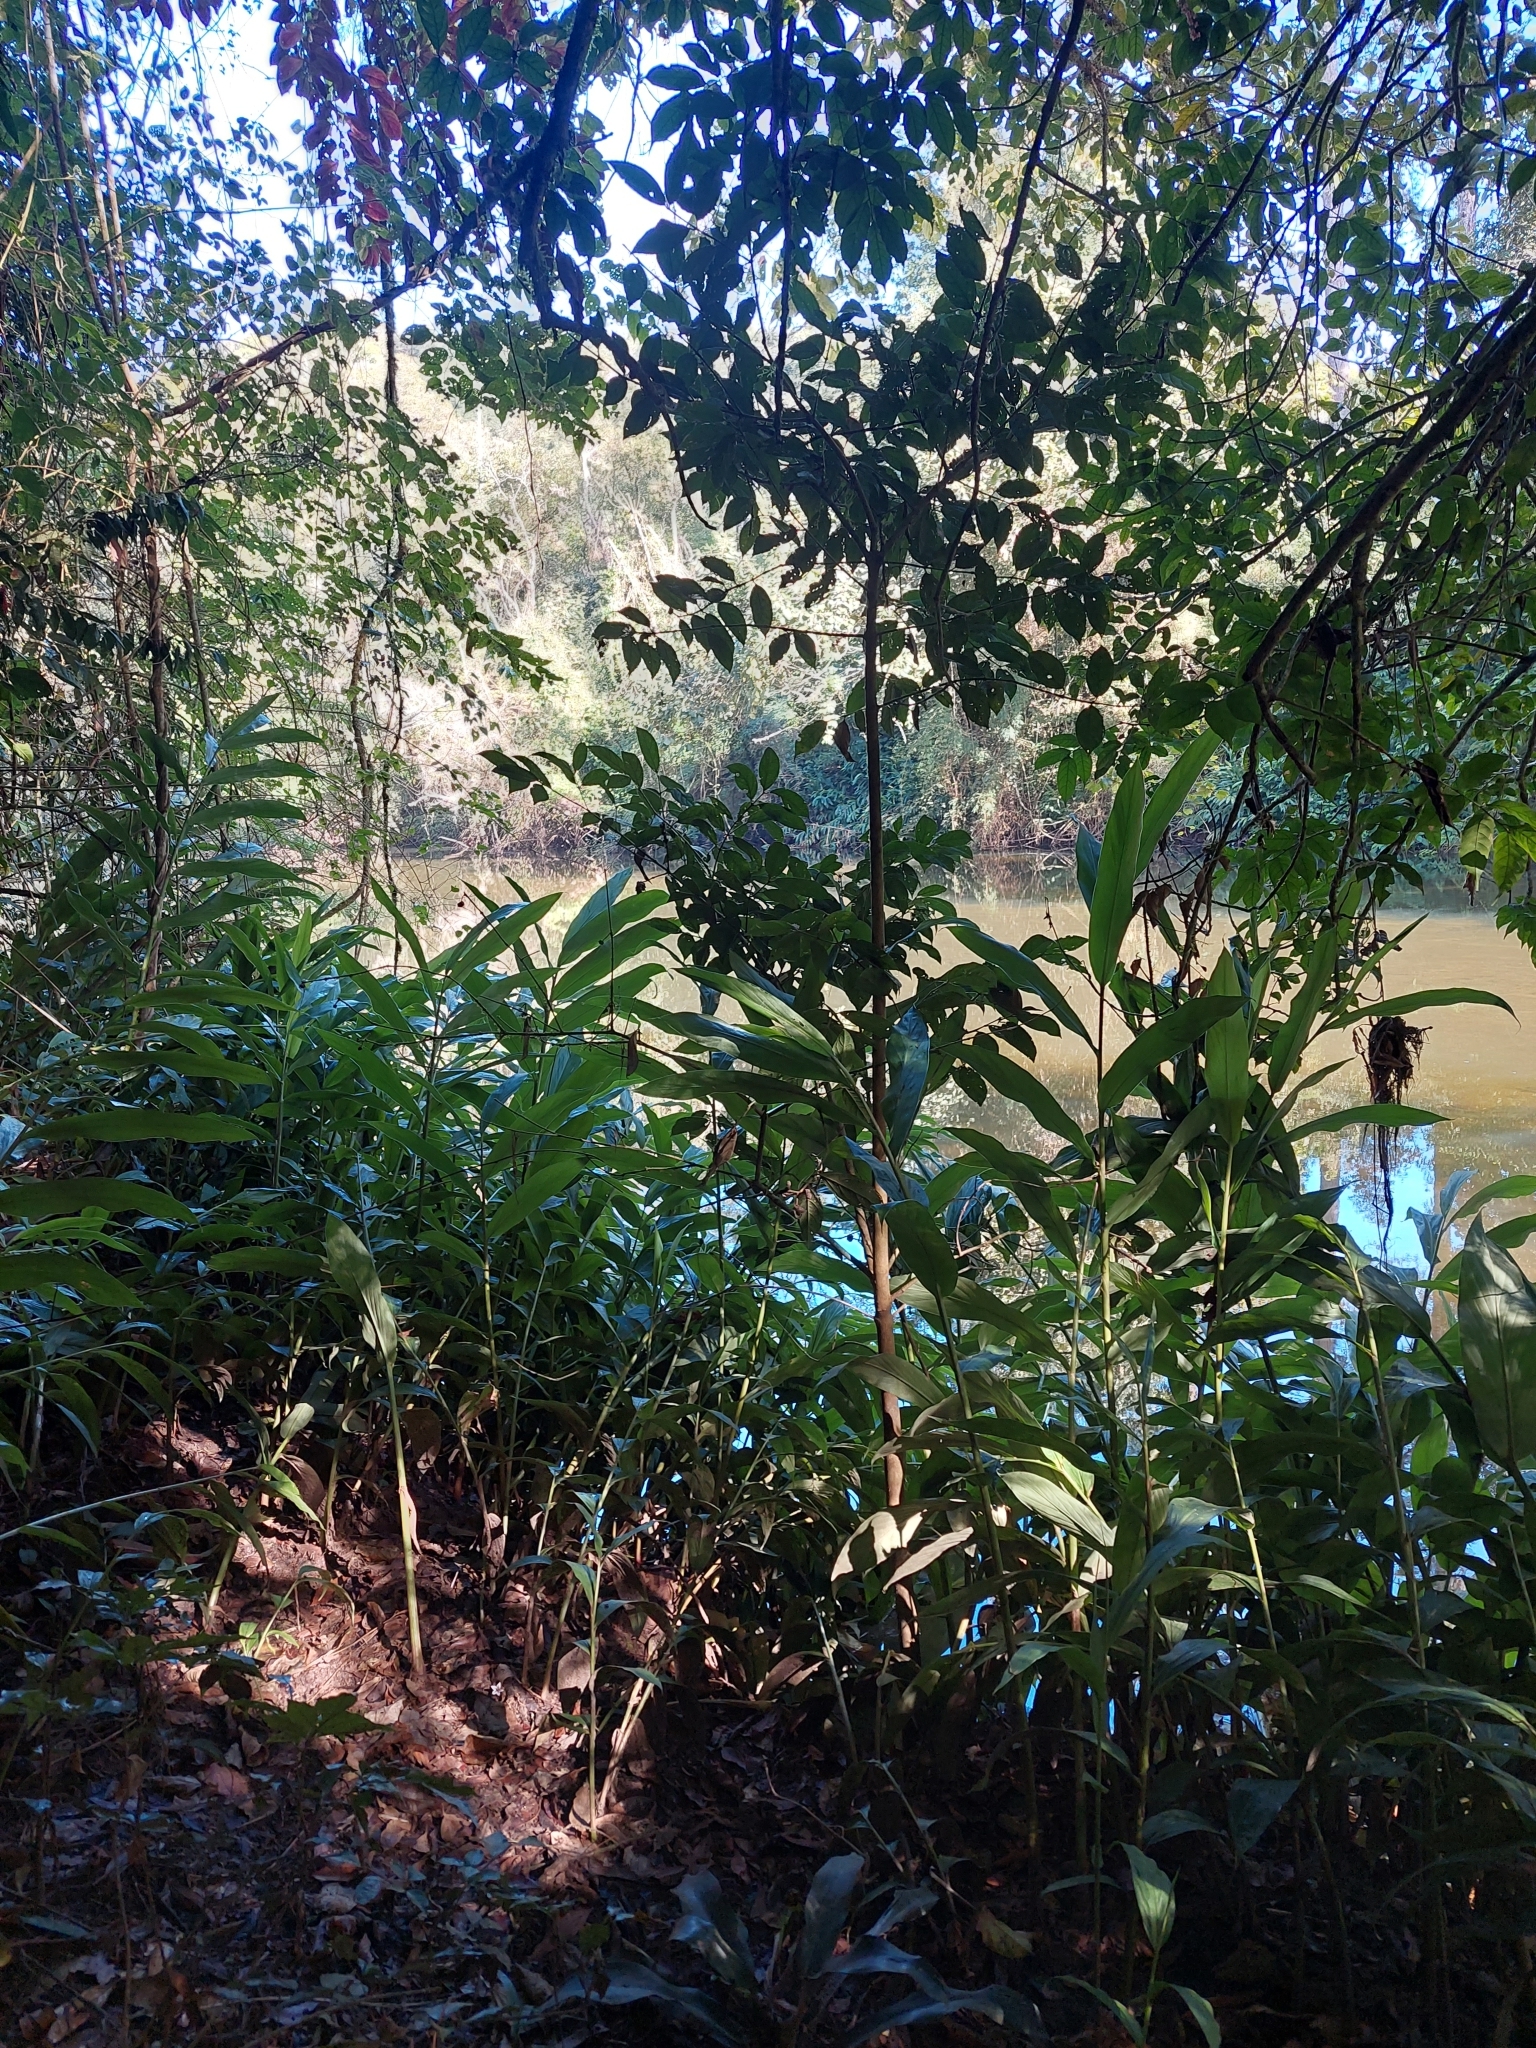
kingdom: Plantae
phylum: Tracheophyta
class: Liliopsida
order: Zingiberales
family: Zingiberaceae
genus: Hedychium
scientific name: Hedychium coronarium
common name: White garland-lily
